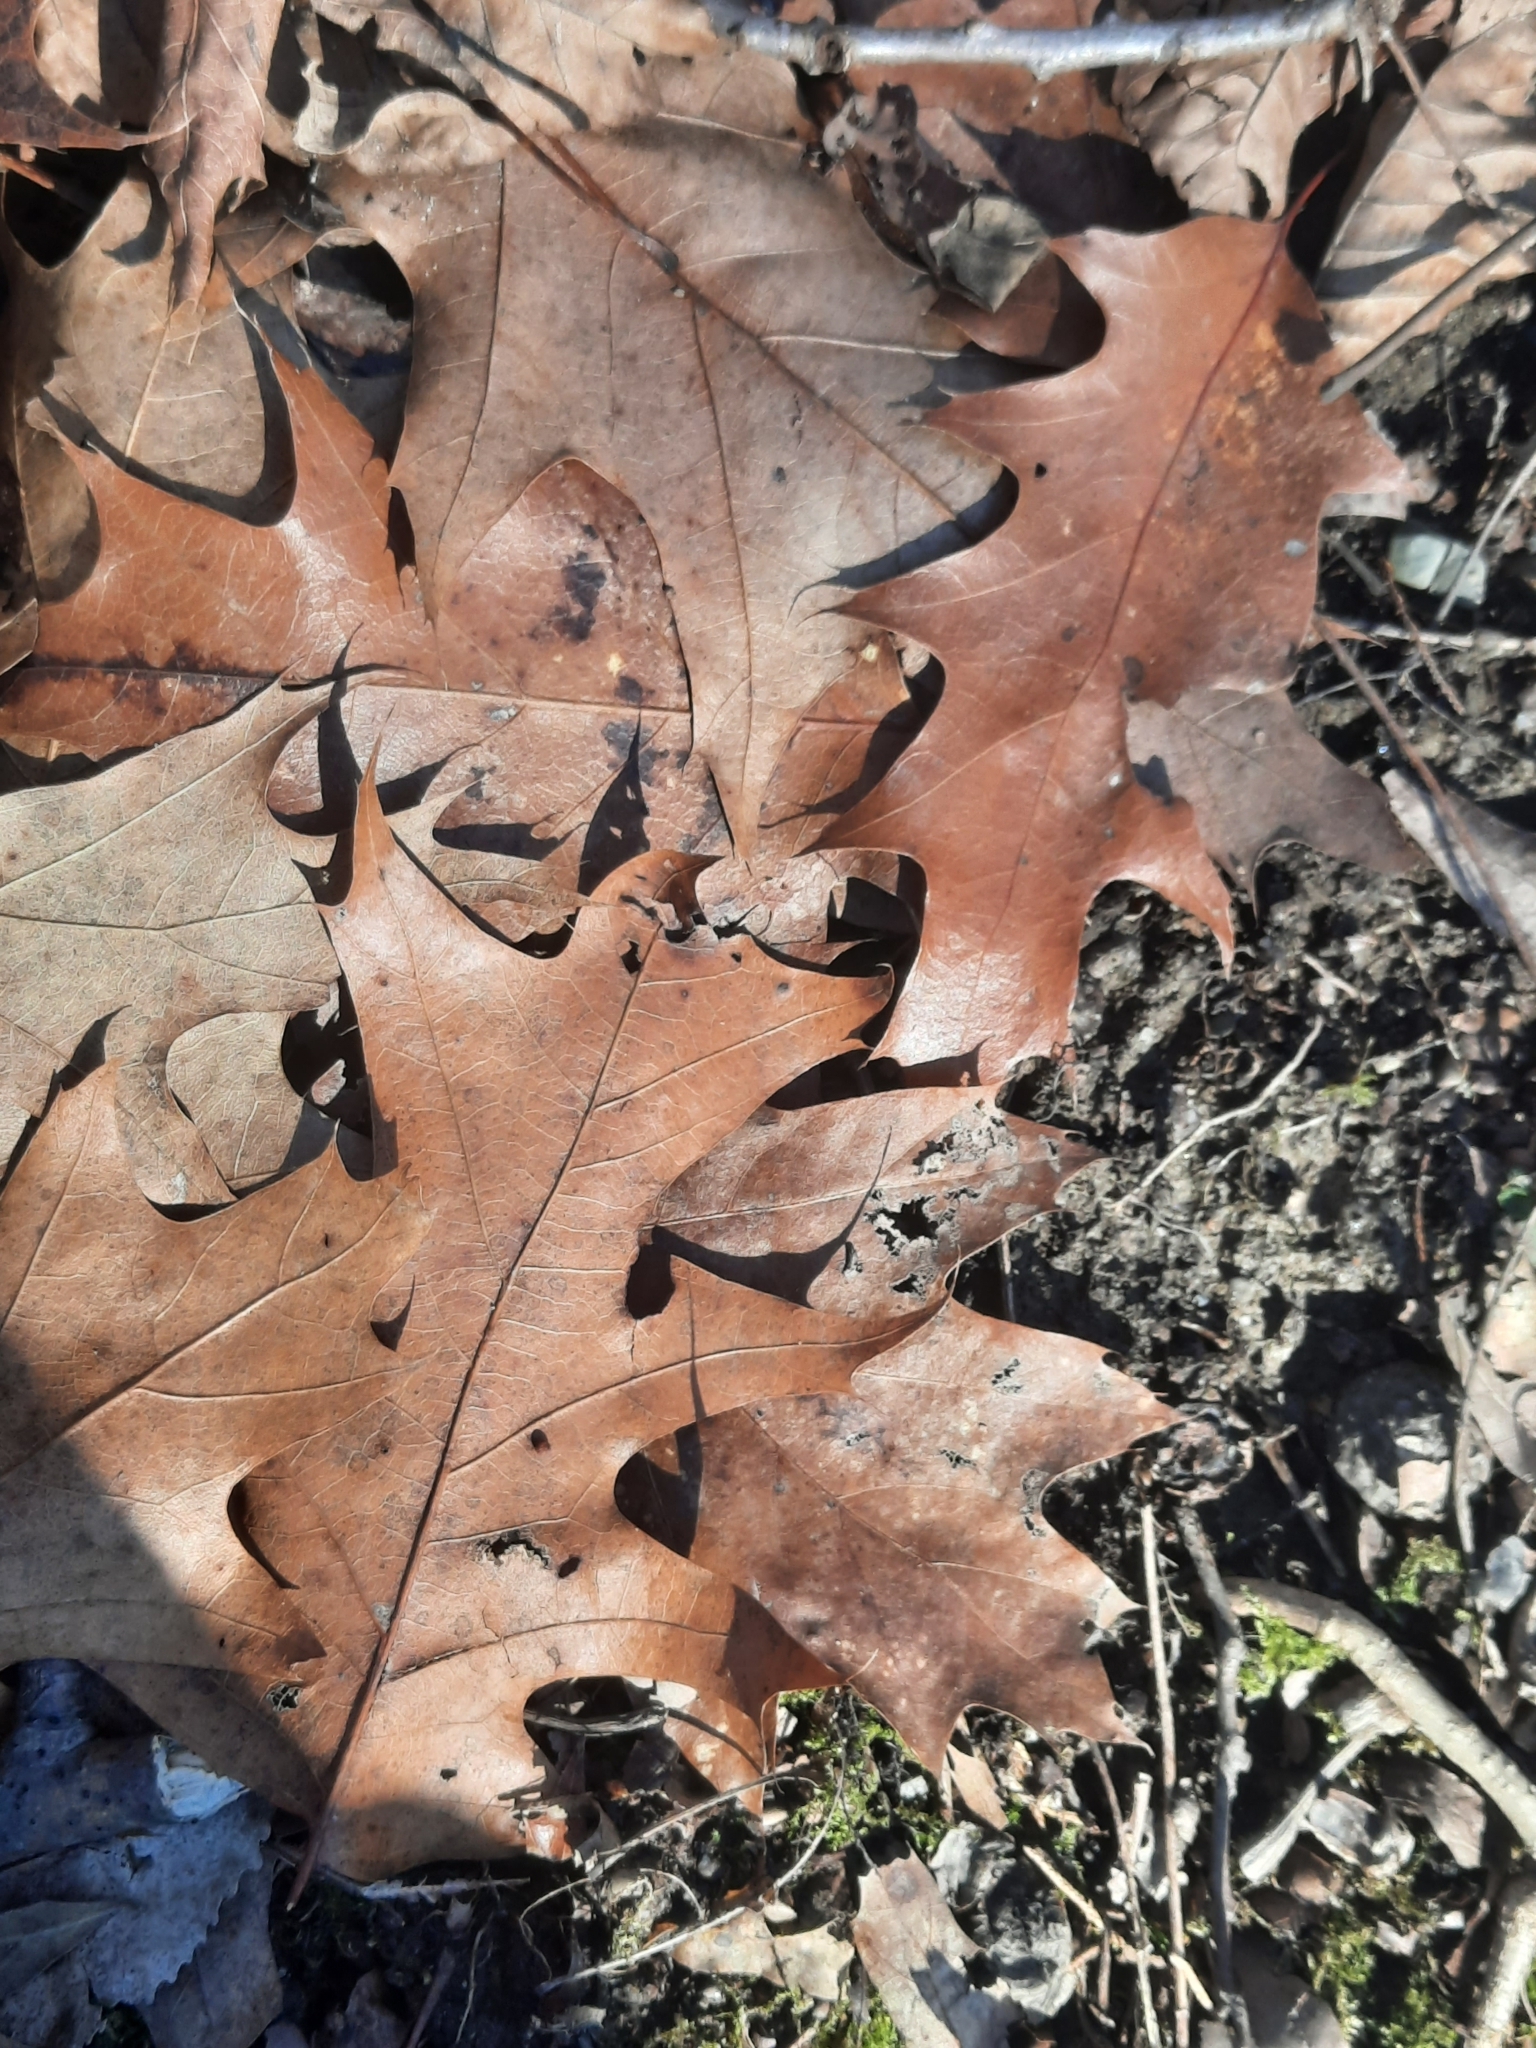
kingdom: Plantae
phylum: Tracheophyta
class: Magnoliopsida
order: Fagales
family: Fagaceae
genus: Quercus
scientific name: Quercus rubra
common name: Red oak
